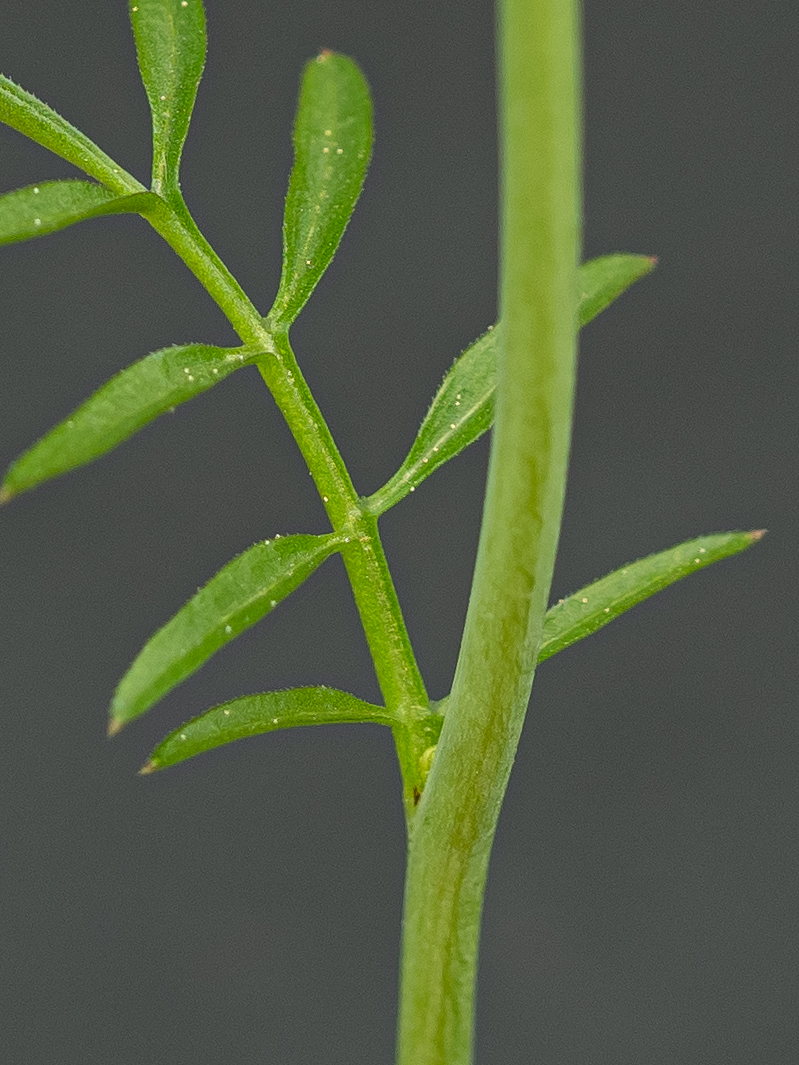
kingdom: Plantae
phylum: Tracheophyta
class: Magnoliopsida
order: Brassicales
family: Brassicaceae
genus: Cardamine
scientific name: Cardamine pratensis
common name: Cuckoo flower
